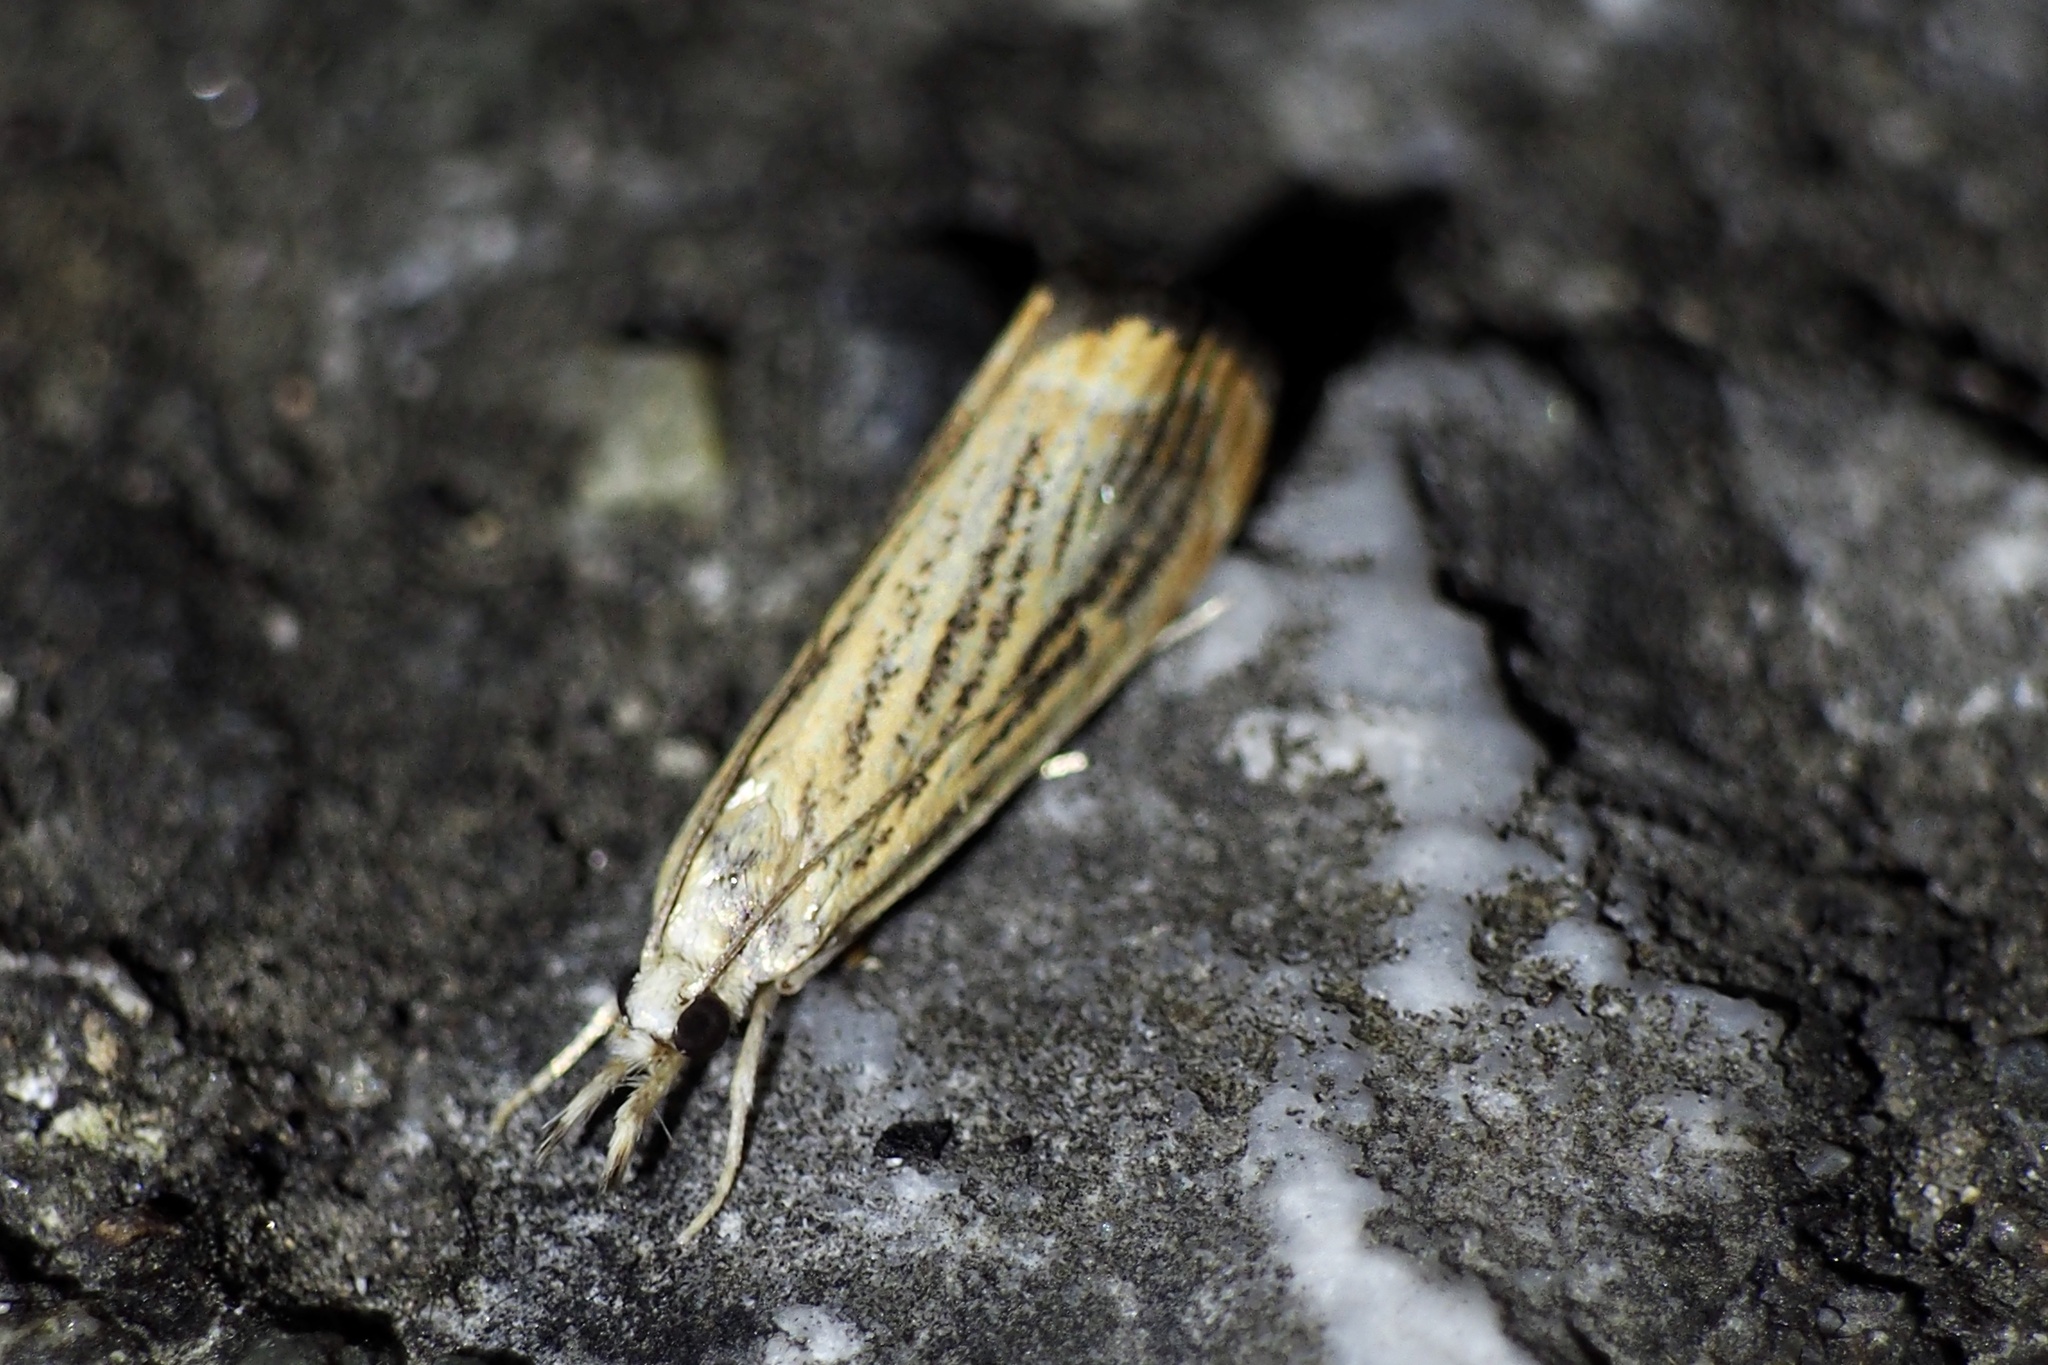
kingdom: Animalia
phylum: Arthropoda
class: Insecta
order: Lepidoptera
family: Crambidae
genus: Flavocrambus
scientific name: Flavocrambus striatellus
